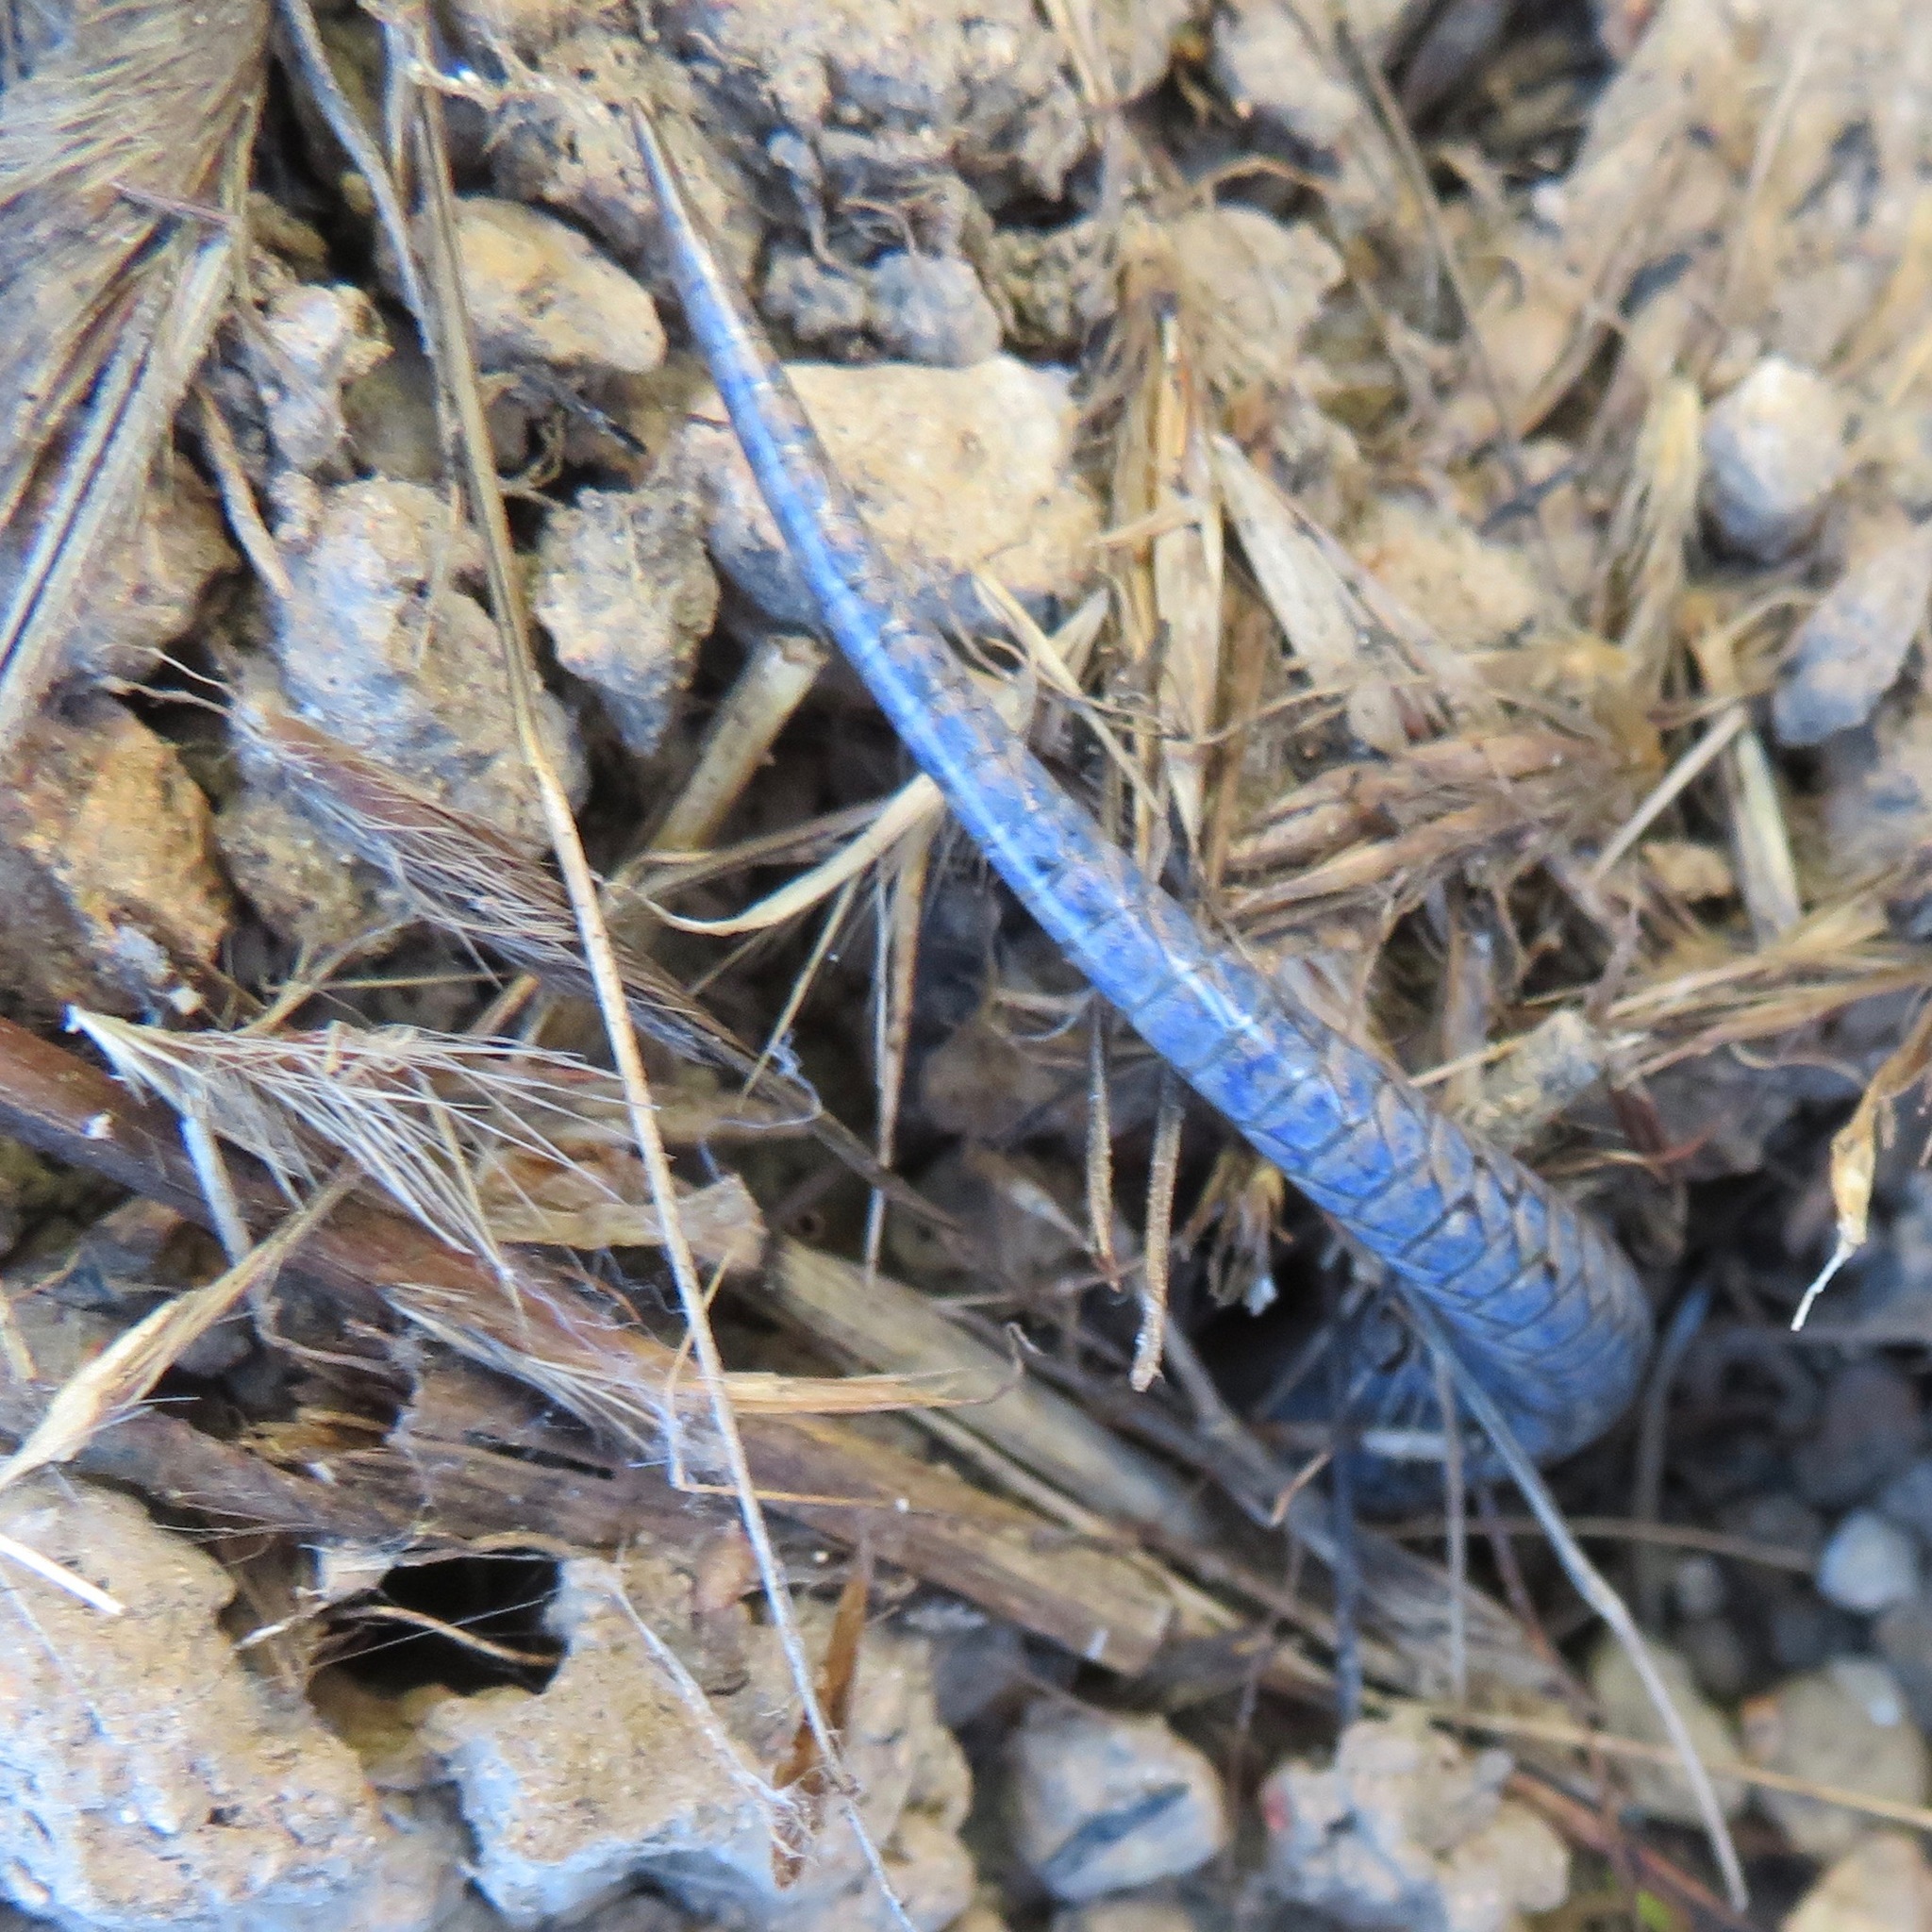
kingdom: Animalia
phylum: Chordata
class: Squamata
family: Scincidae
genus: Plestiodon
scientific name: Plestiodon skiltonianus
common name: Coronado island skink [interparietalis]
